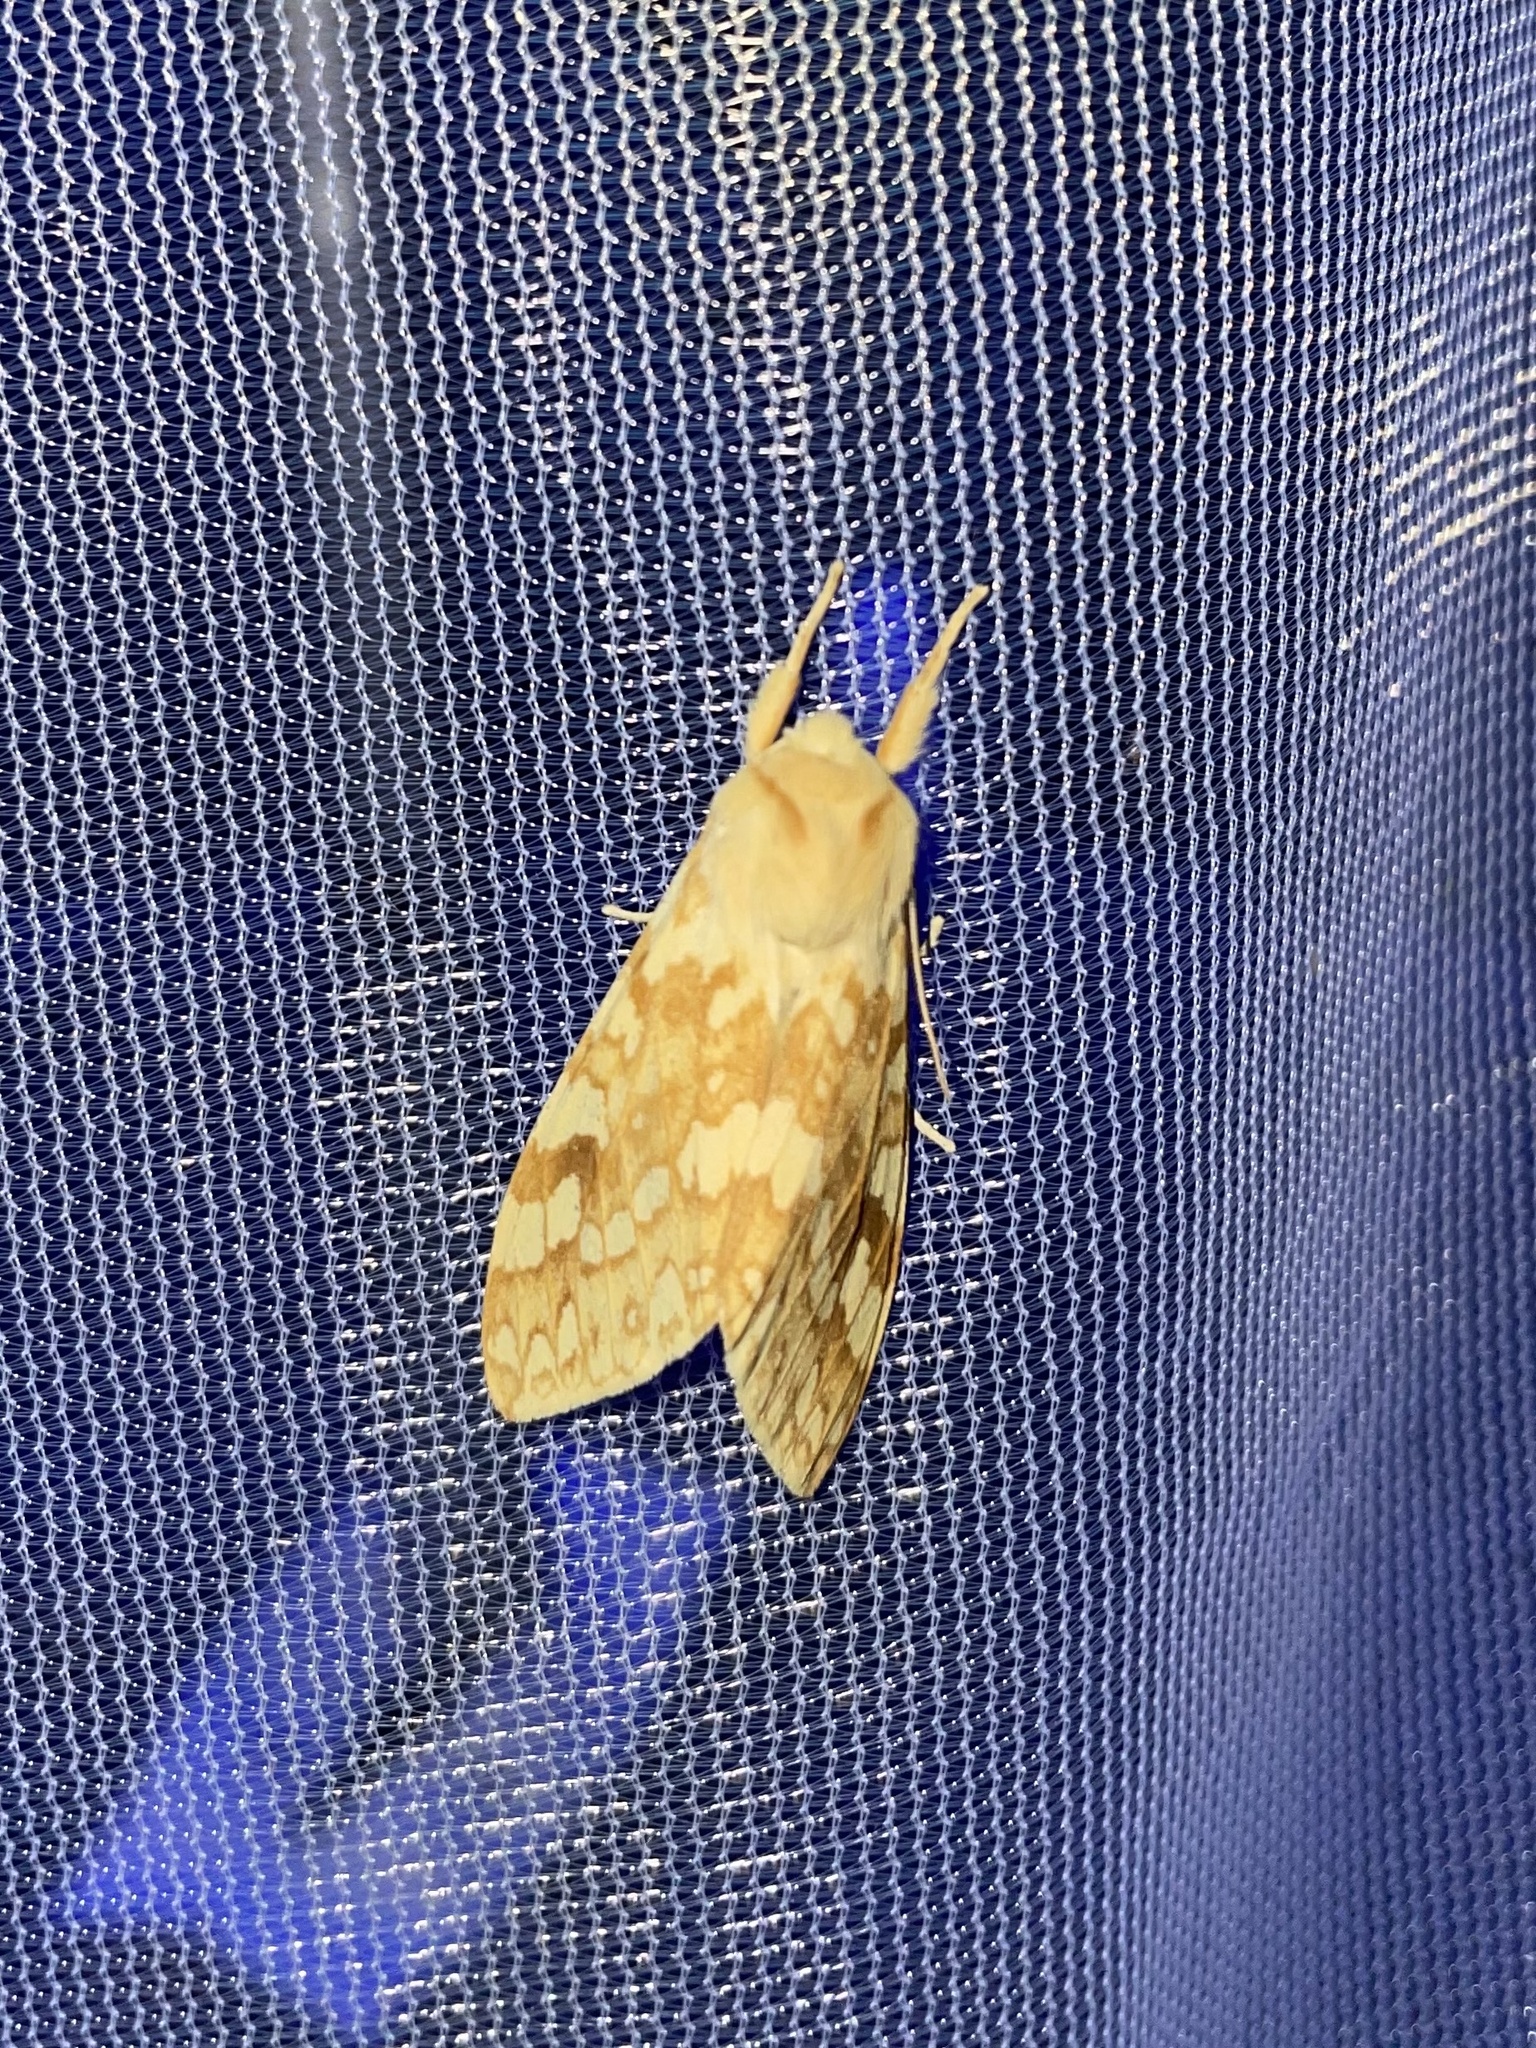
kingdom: Animalia
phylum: Arthropoda
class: Insecta
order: Lepidoptera
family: Erebidae
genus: Lophocampa
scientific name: Lophocampa maculata
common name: Spotted tussock moth
